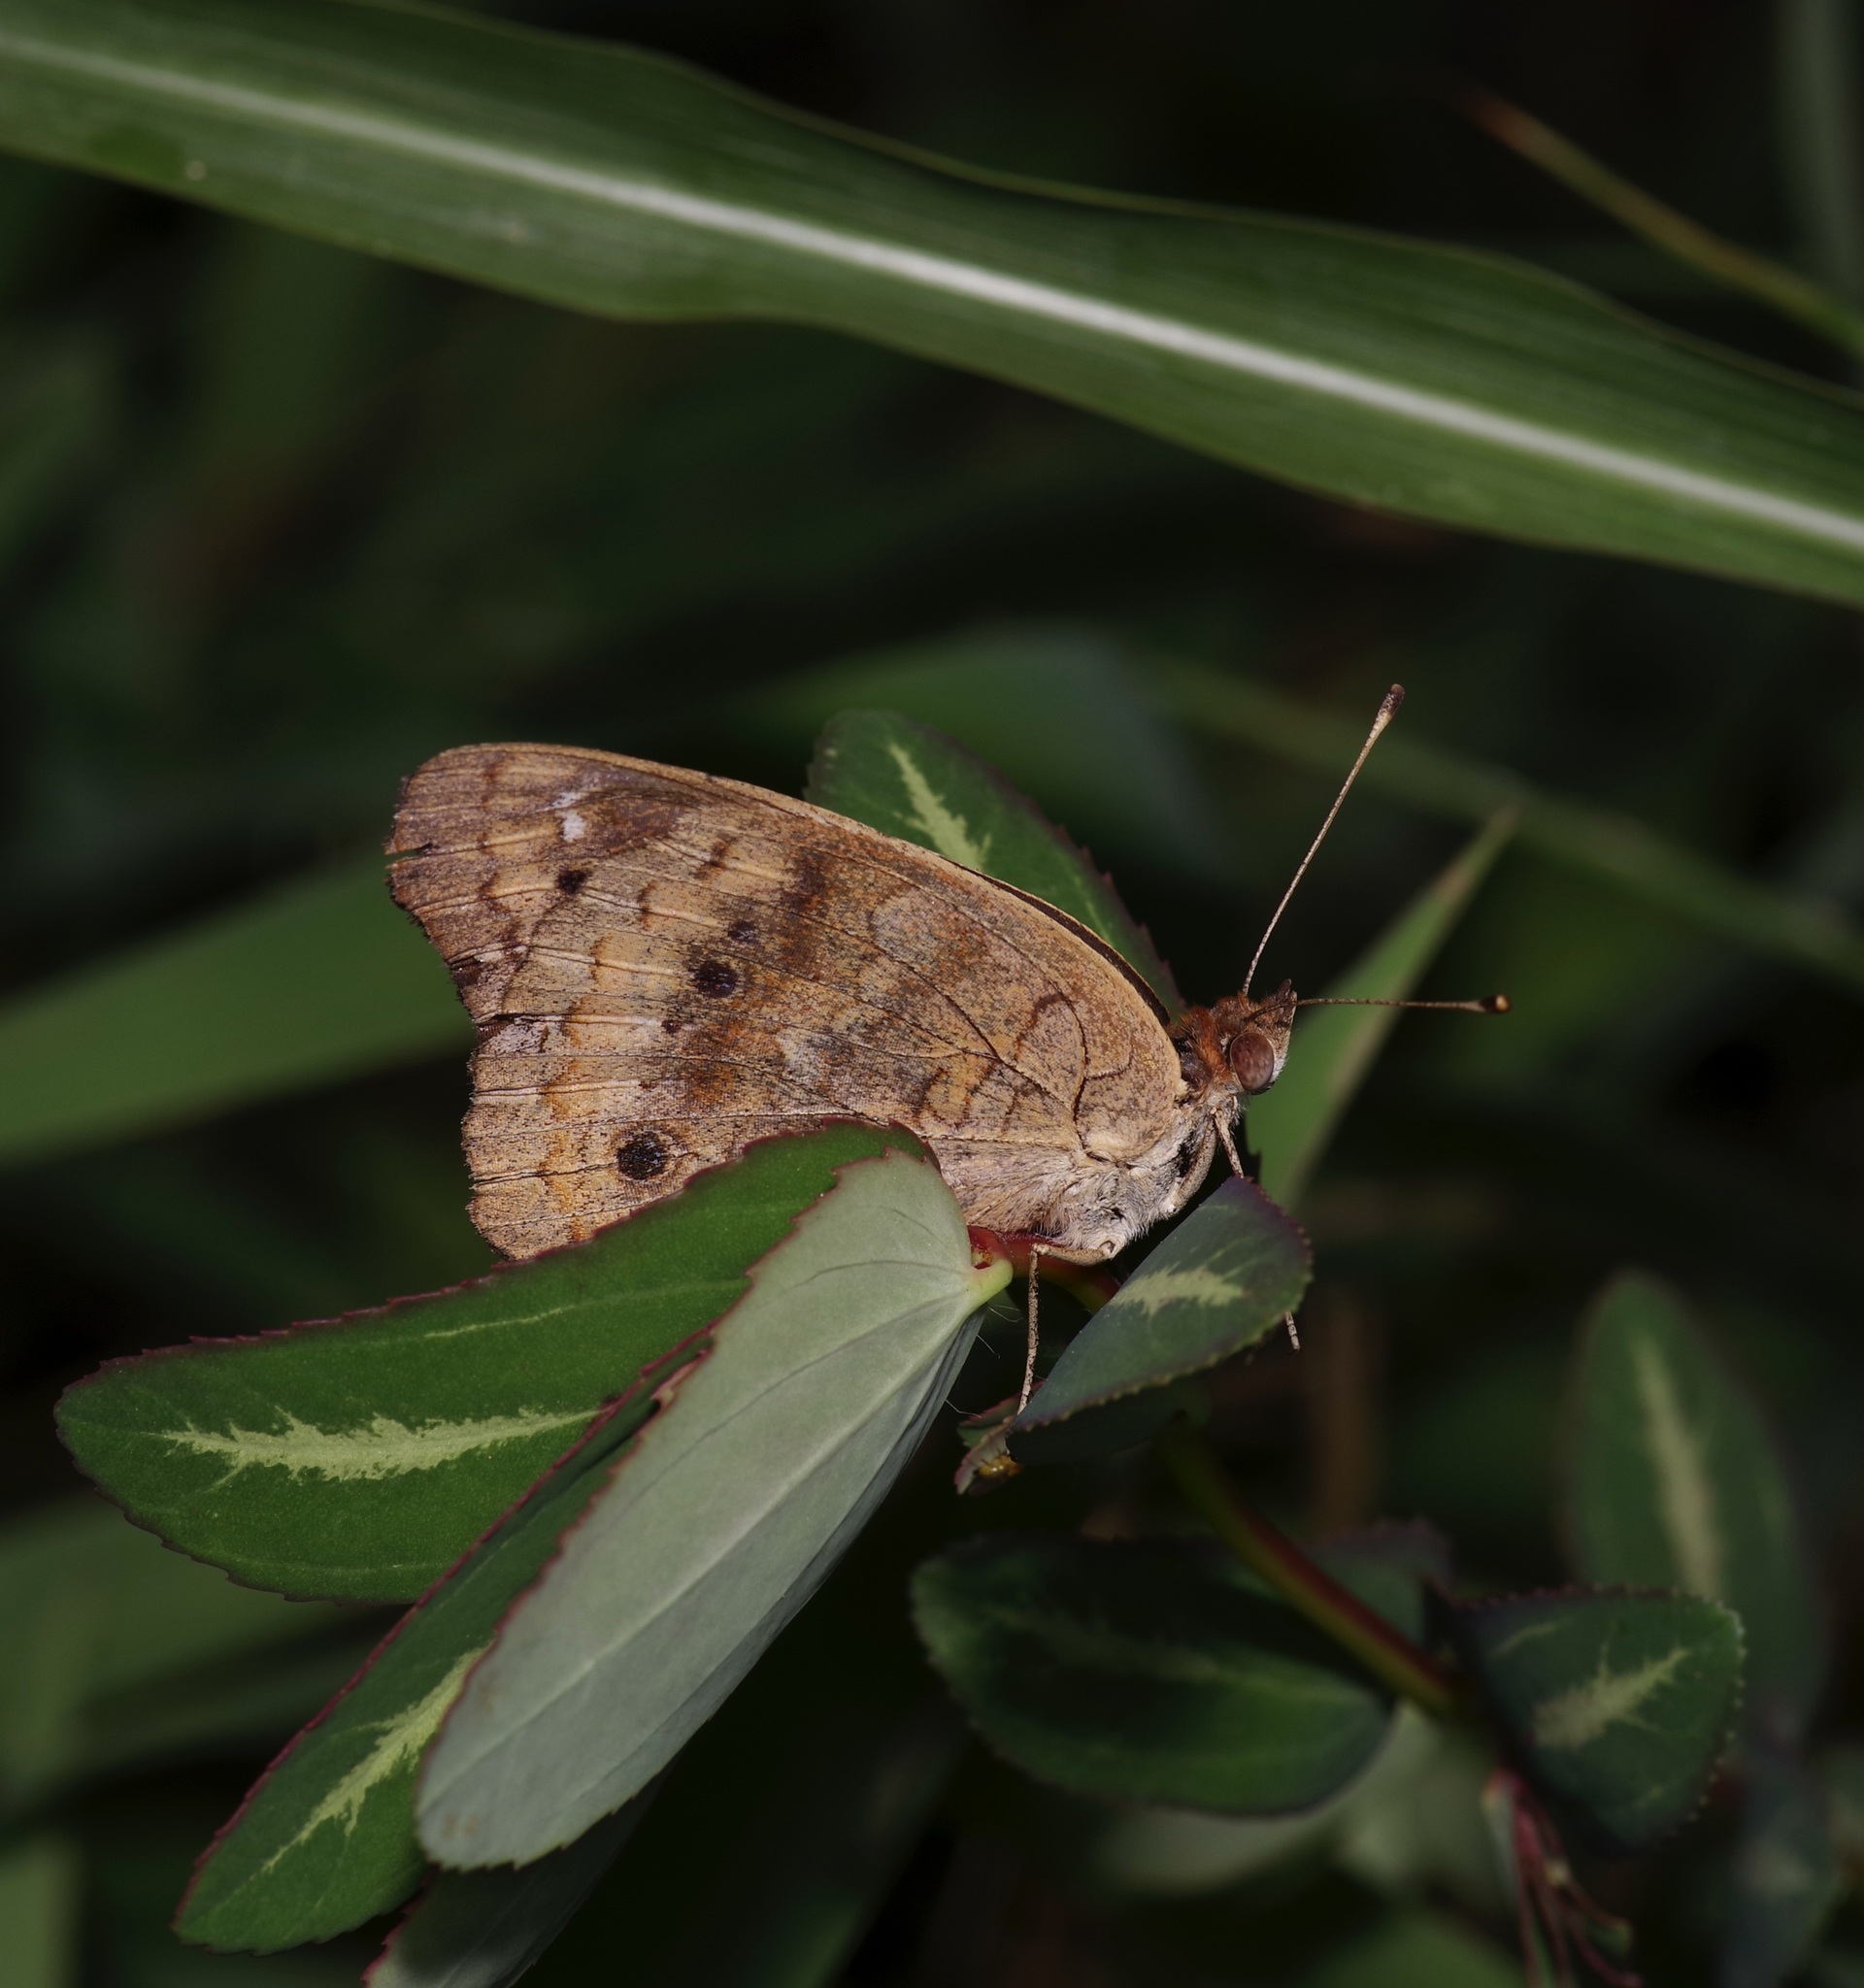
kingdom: Animalia
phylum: Arthropoda
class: Insecta
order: Lepidoptera
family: Nymphalidae
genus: Junonia
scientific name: Junonia coenia
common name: Common buckeye
